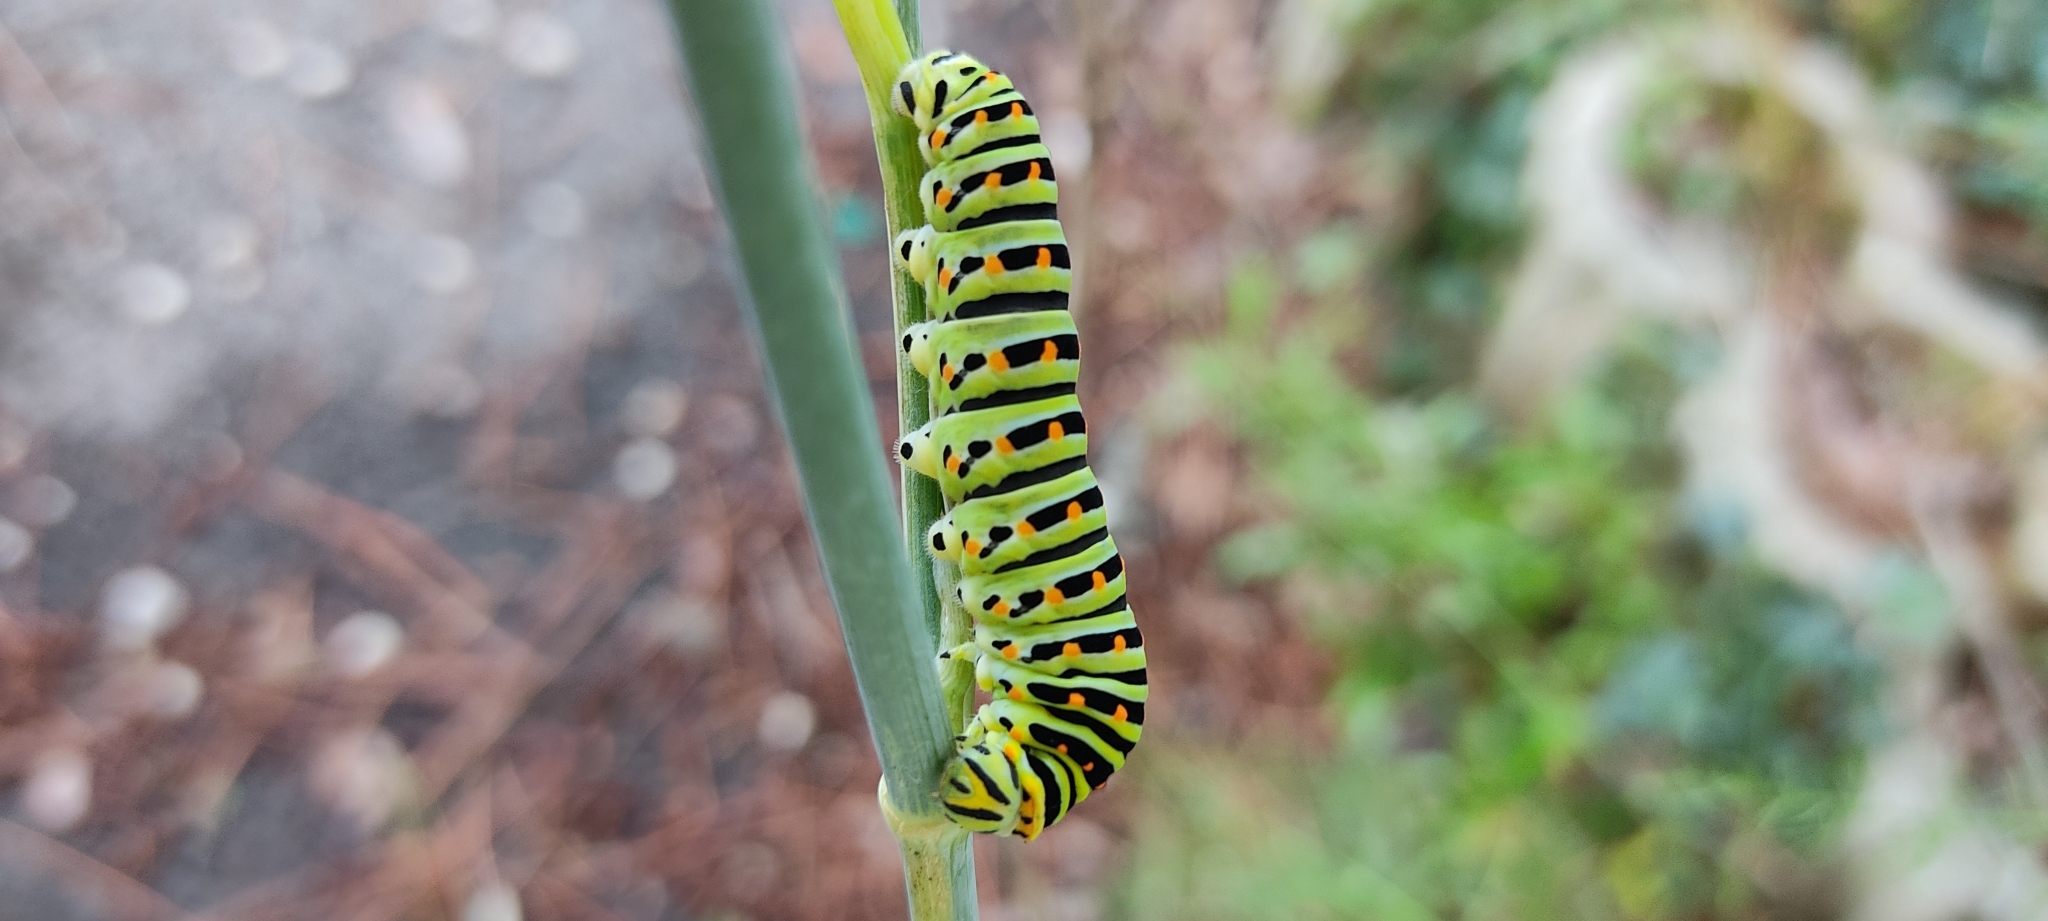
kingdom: Animalia
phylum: Arthropoda
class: Insecta
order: Lepidoptera
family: Papilionidae
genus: Papilio
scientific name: Papilio machaon
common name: Swallowtail
